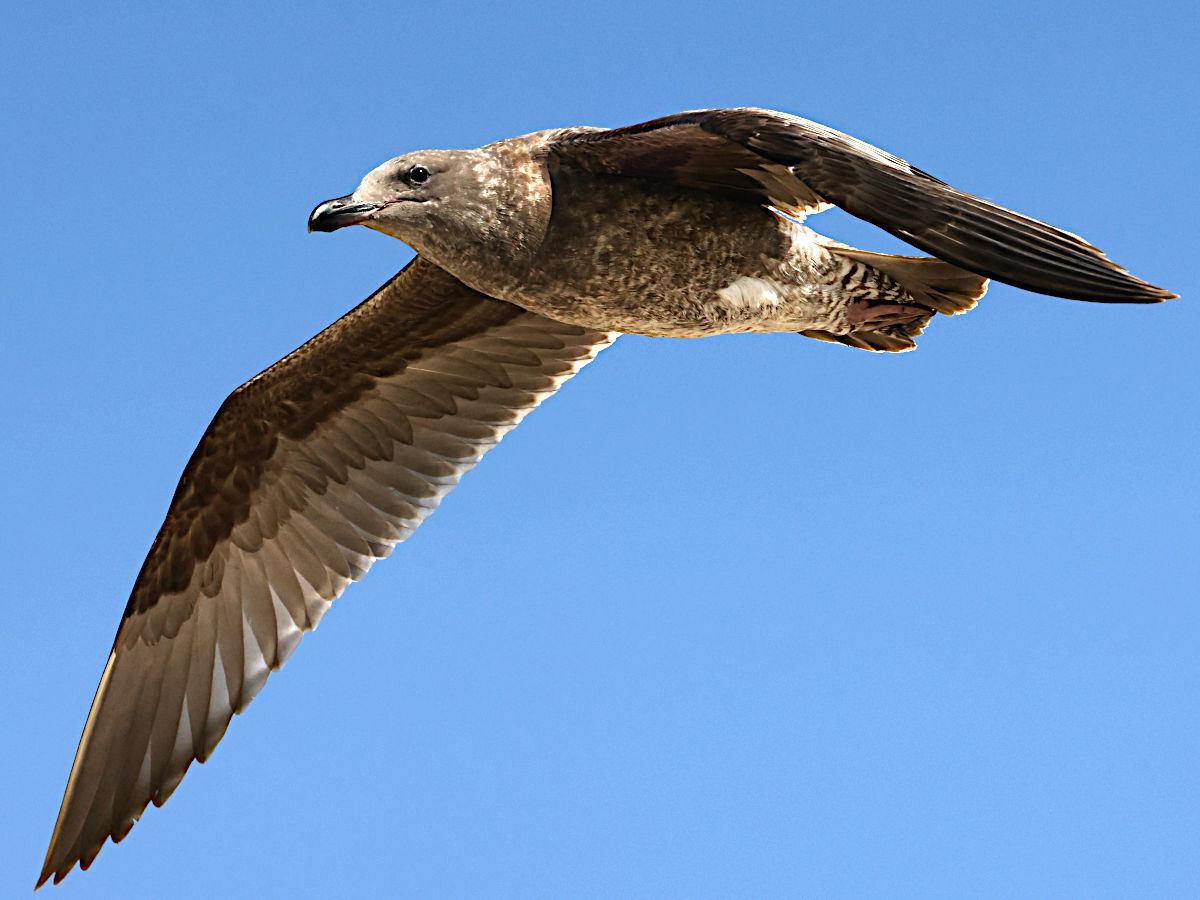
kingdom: Animalia
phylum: Chordata
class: Aves
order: Charadriiformes
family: Laridae
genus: Larus
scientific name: Larus occidentalis
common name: Western gull
